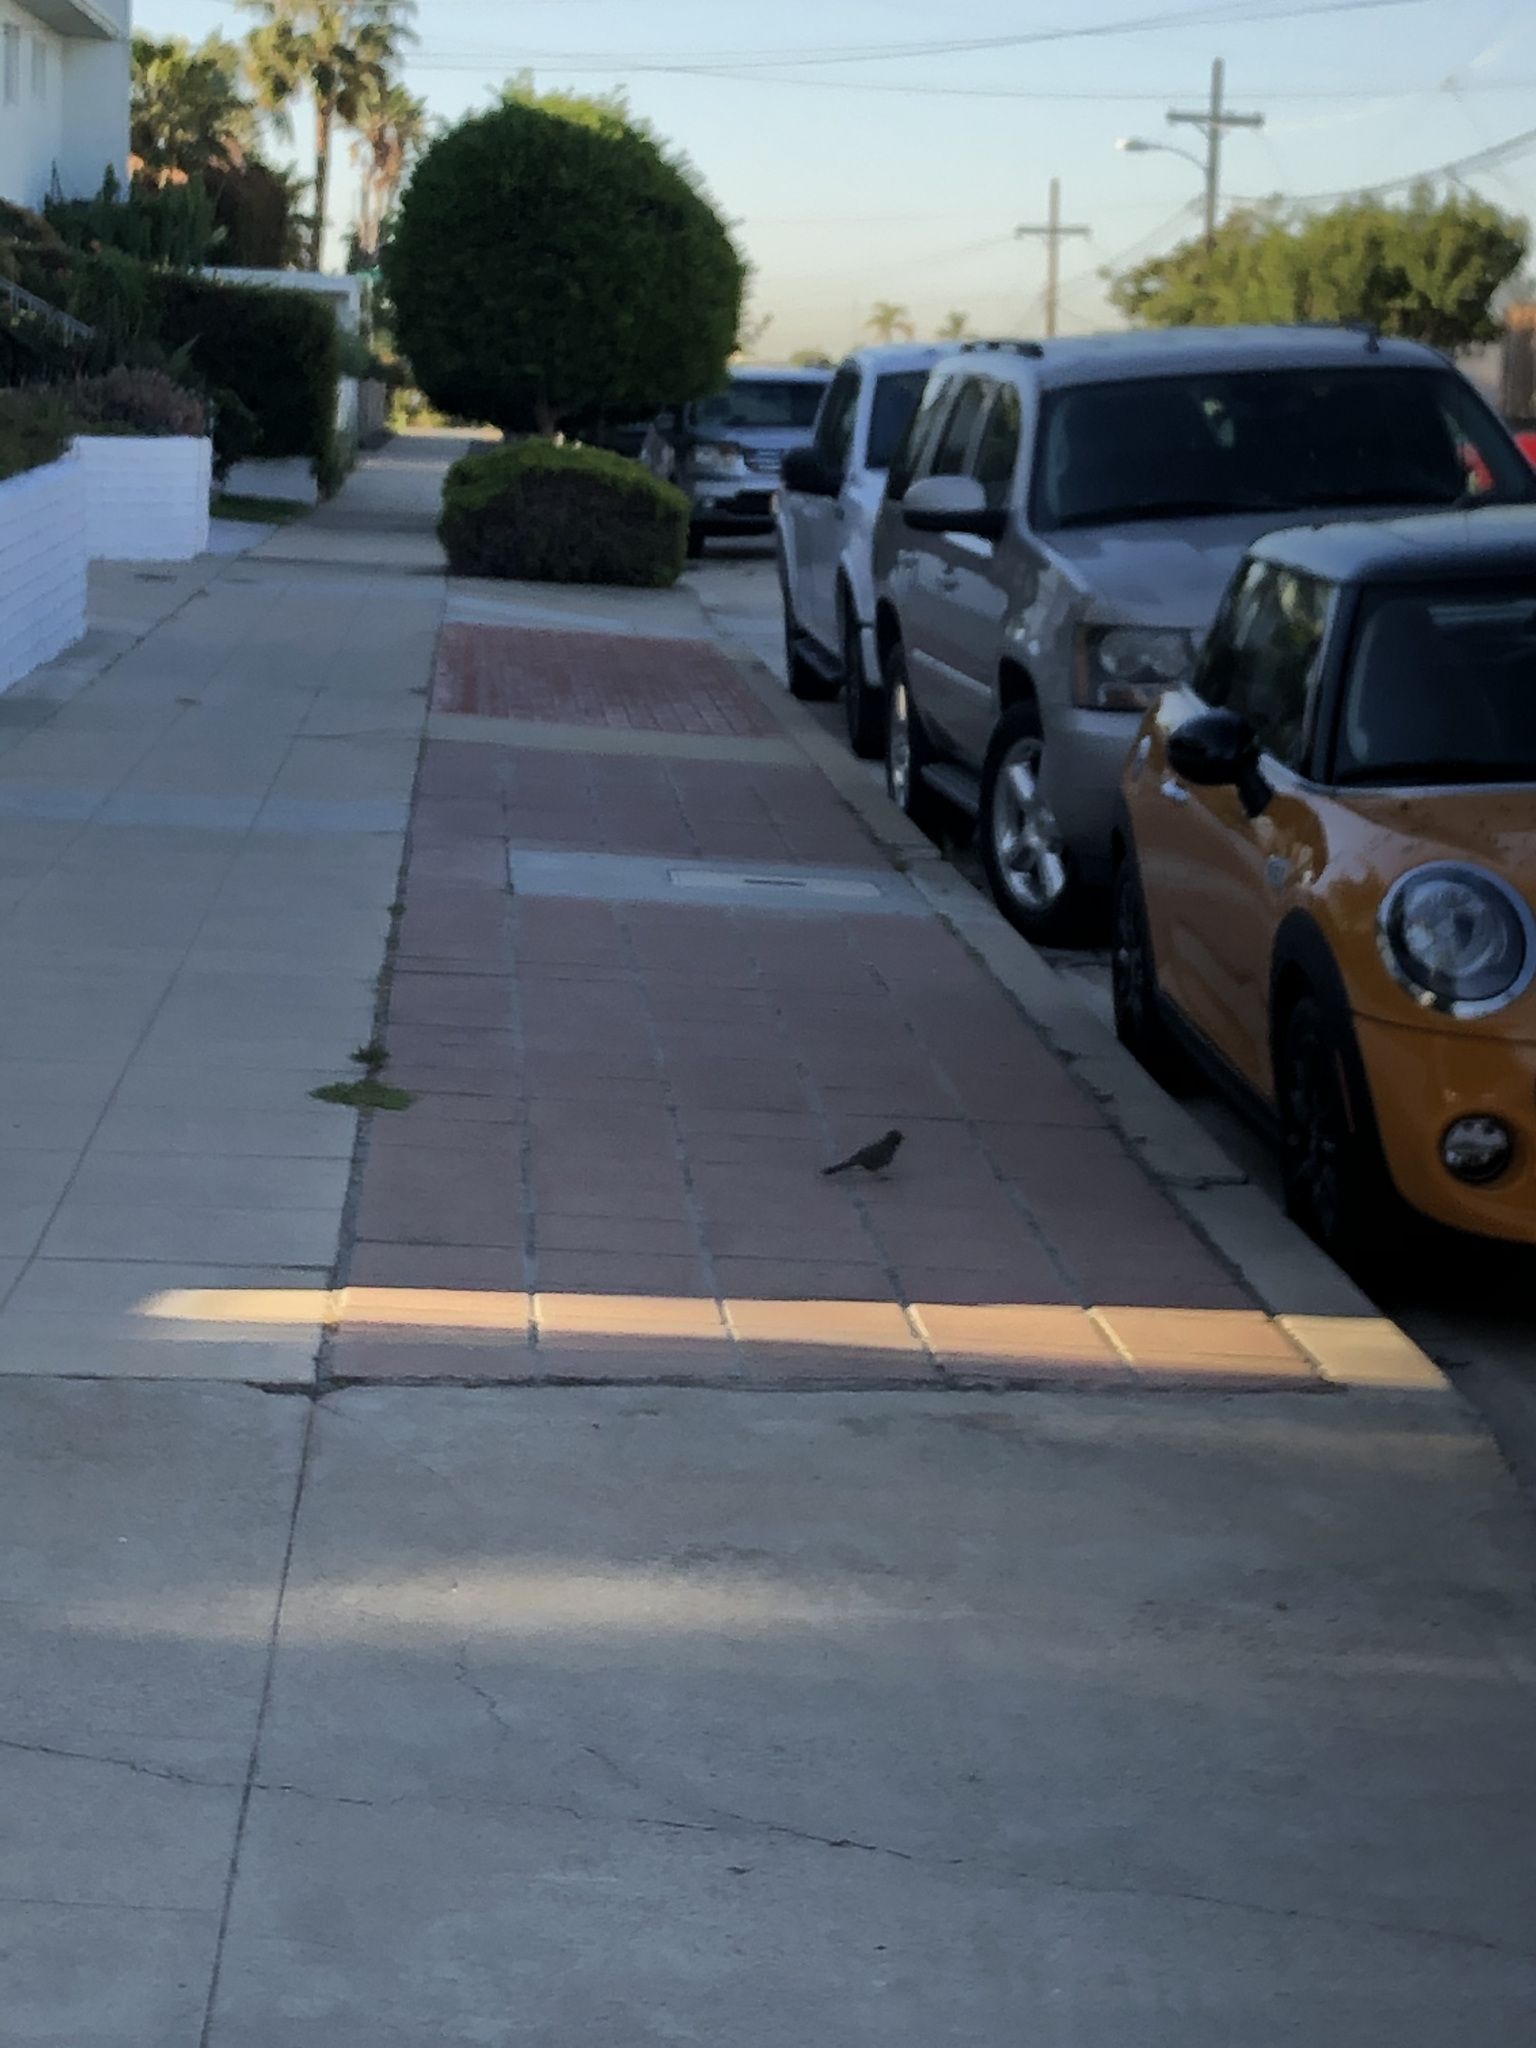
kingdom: Animalia
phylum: Chordata
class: Aves
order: Passeriformes
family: Passerellidae
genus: Melozone
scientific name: Melozone crissalis
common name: California towhee
